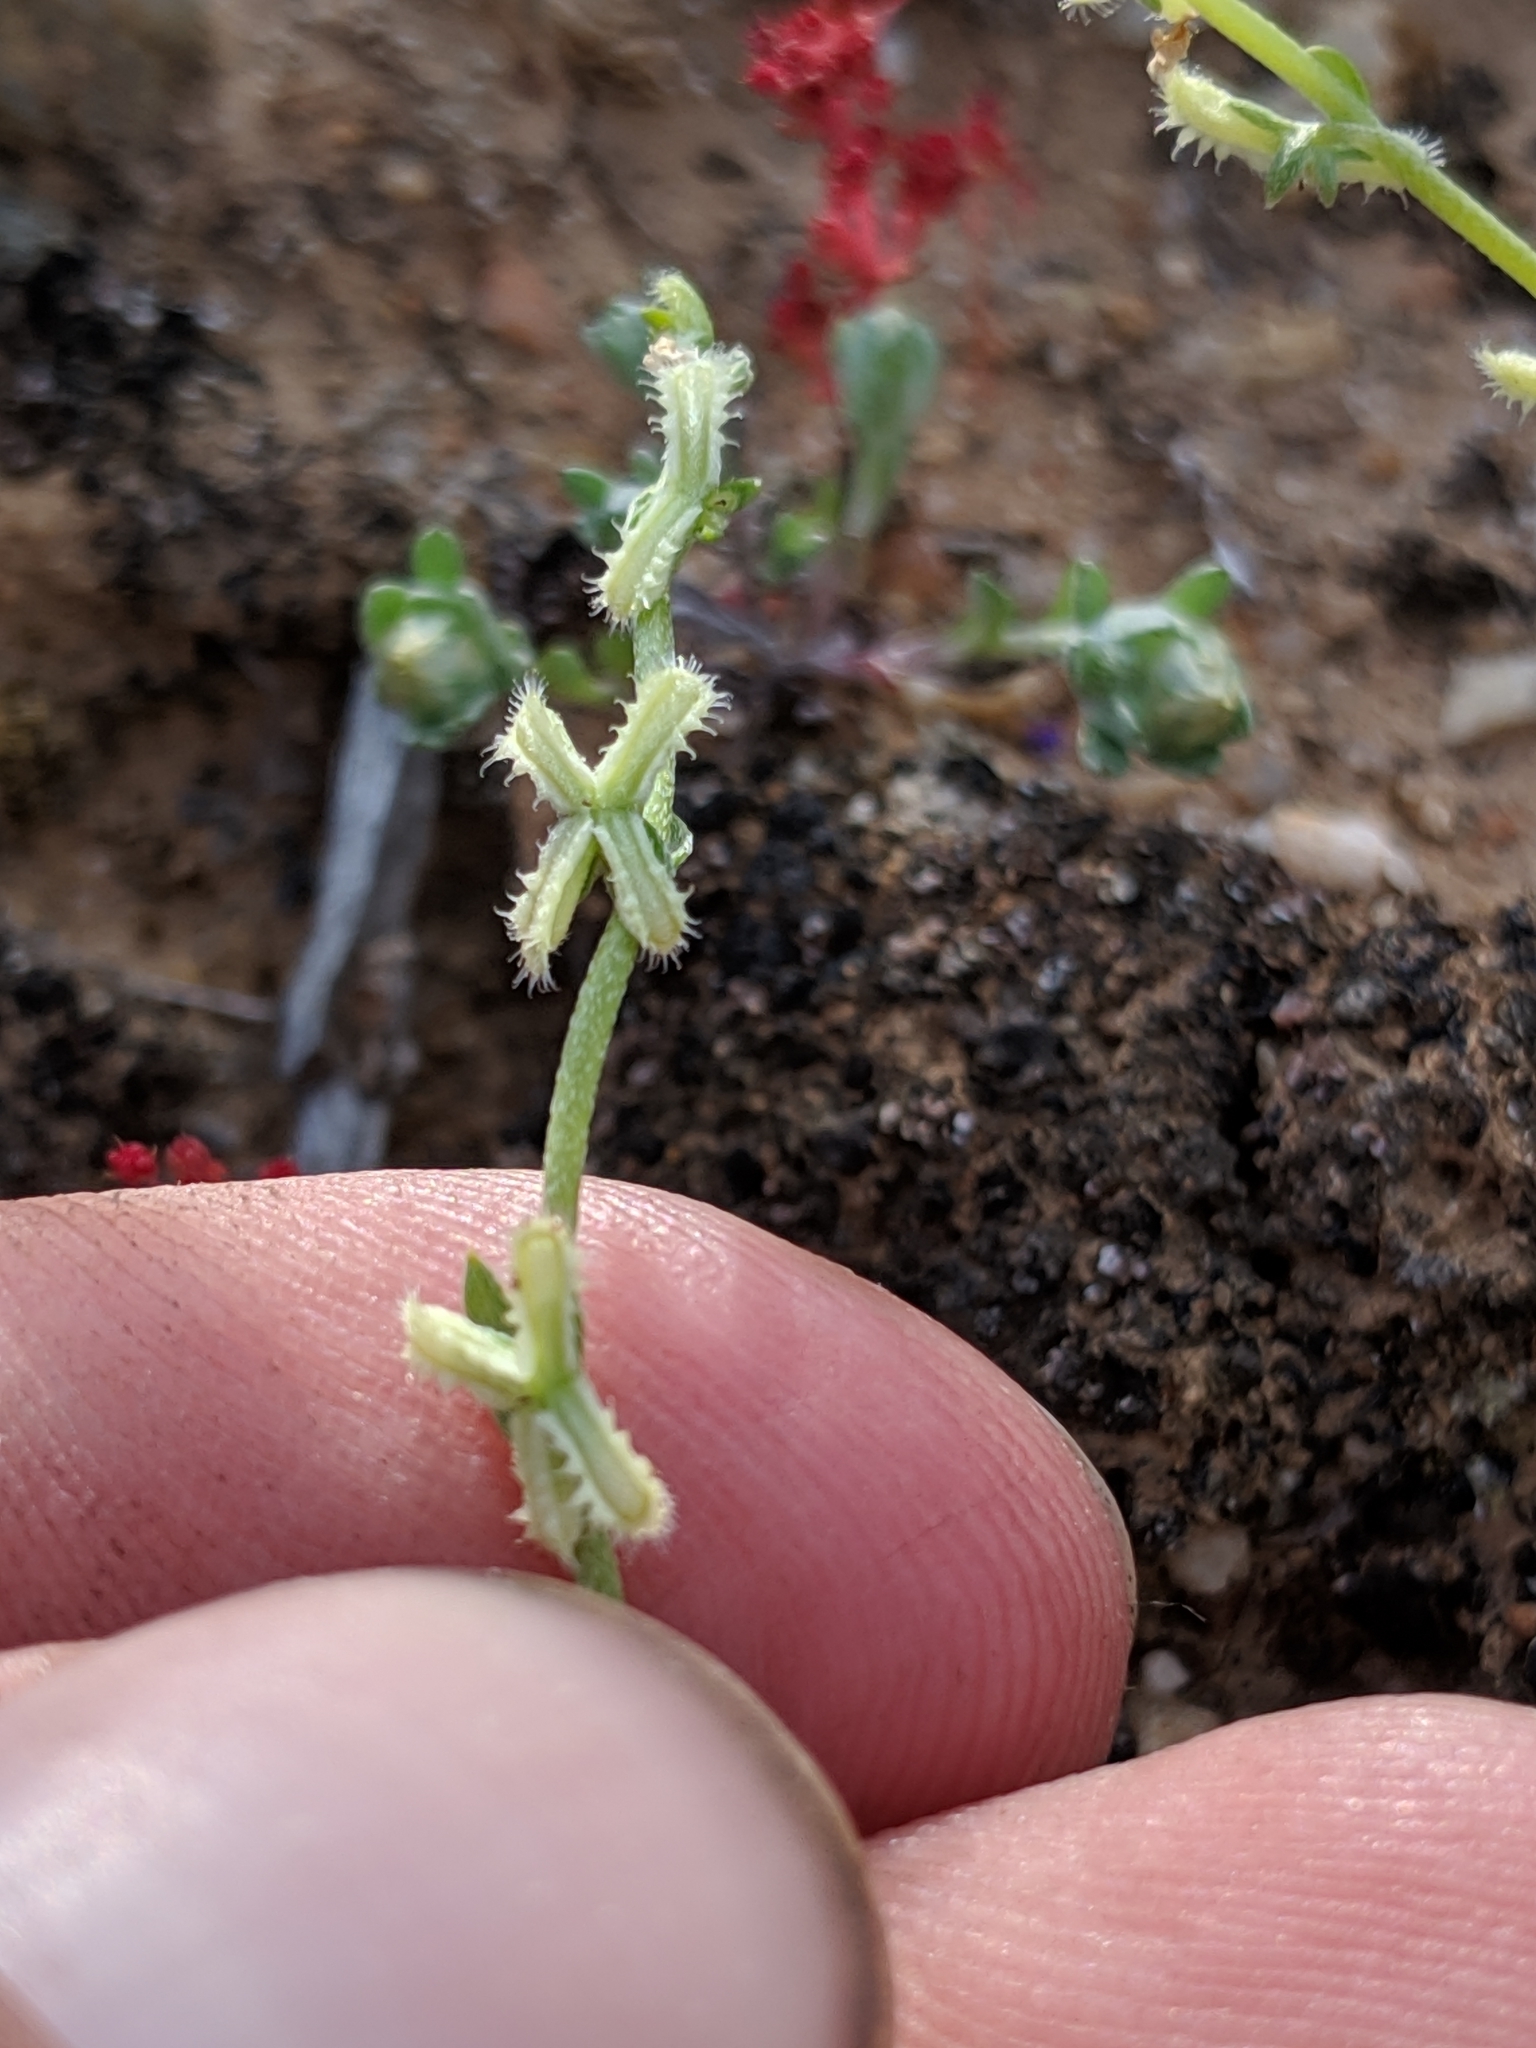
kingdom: Plantae
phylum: Tracheophyta
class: Magnoliopsida
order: Boraginales
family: Boraginaceae
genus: Pectocarya
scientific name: Pectocarya linearis
